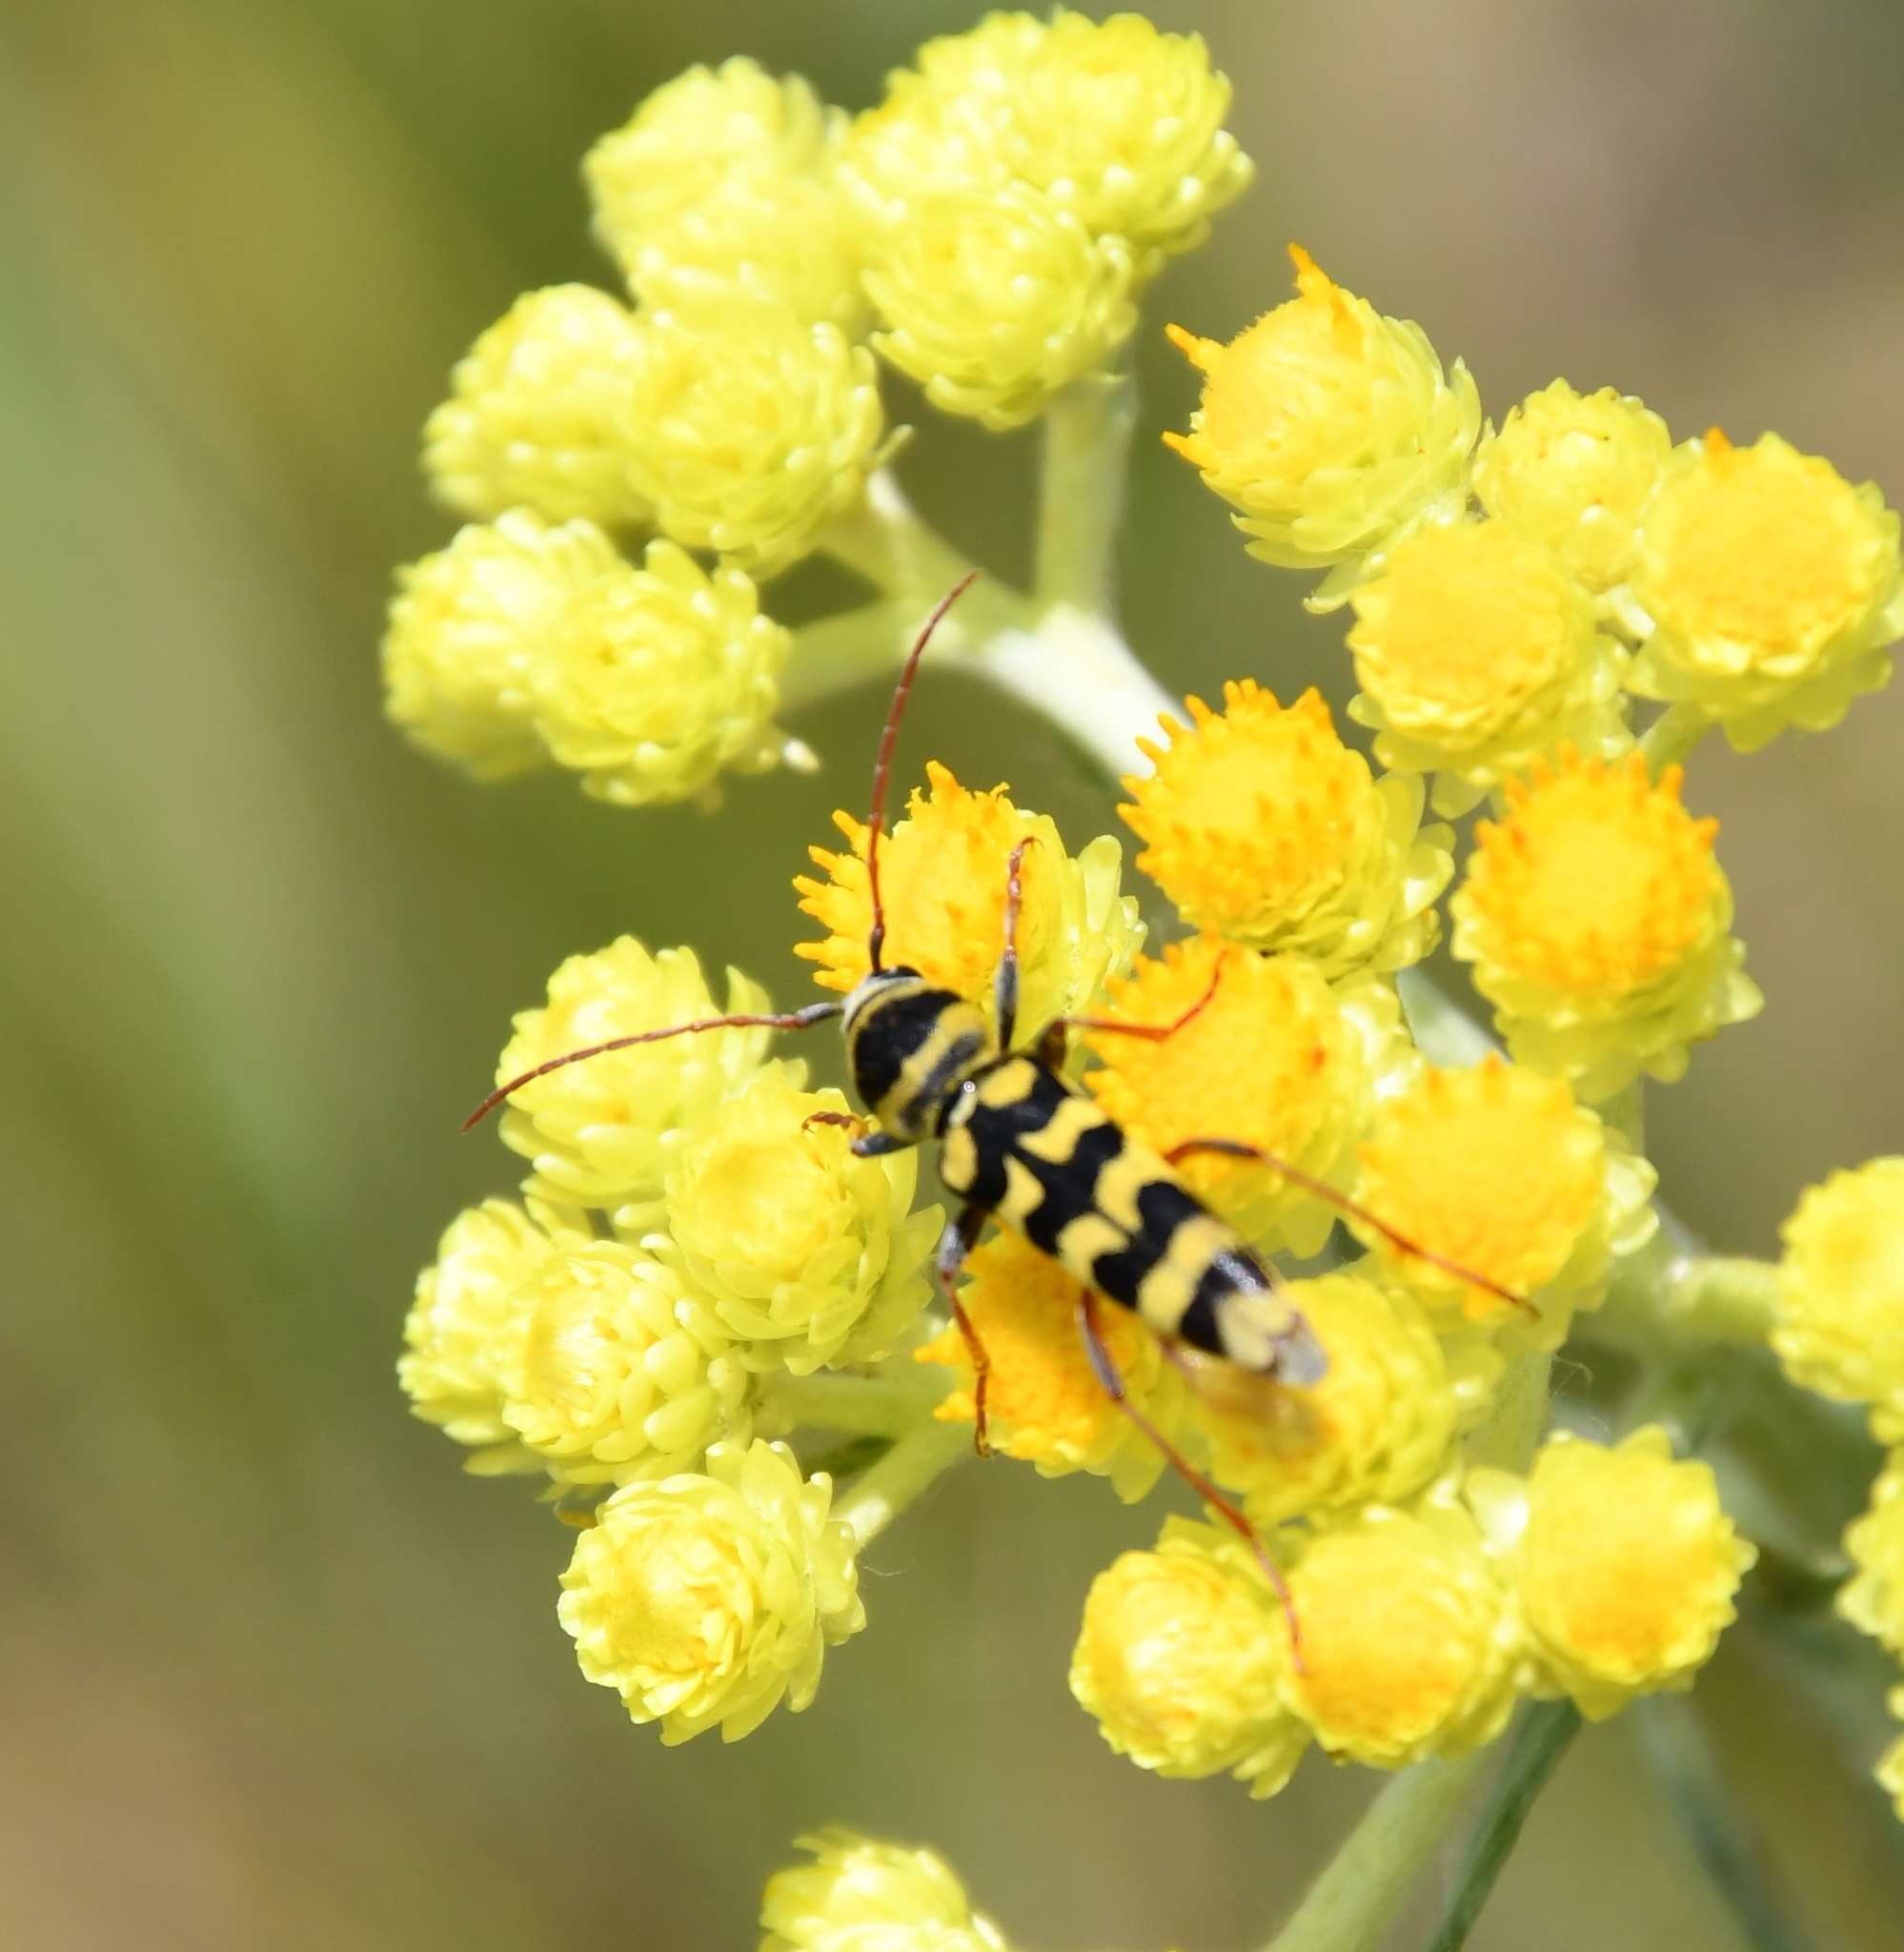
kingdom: Animalia
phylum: Arthropoda
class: Insecta
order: Coleoptera
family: Cerambycidae
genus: Plagionotus
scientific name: Plagionotus floralis
